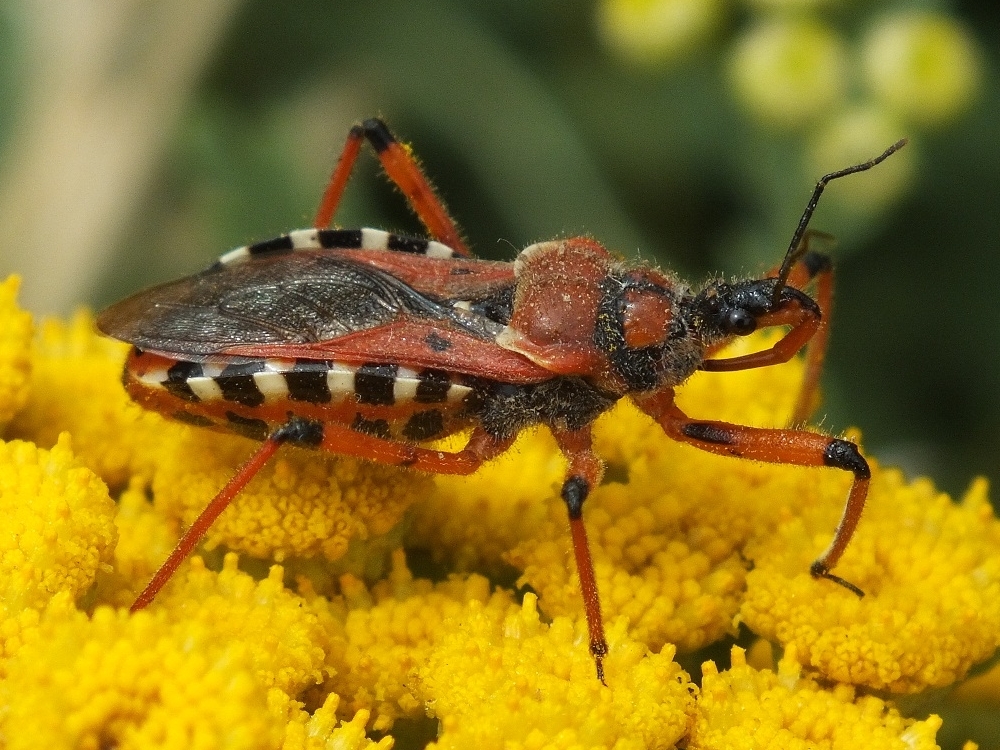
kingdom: Animalia
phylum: Arthropoda
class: Insecta
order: Hemiptera
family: Reduviidae
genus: Rhynocoris
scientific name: Rhynocoris iracundus
